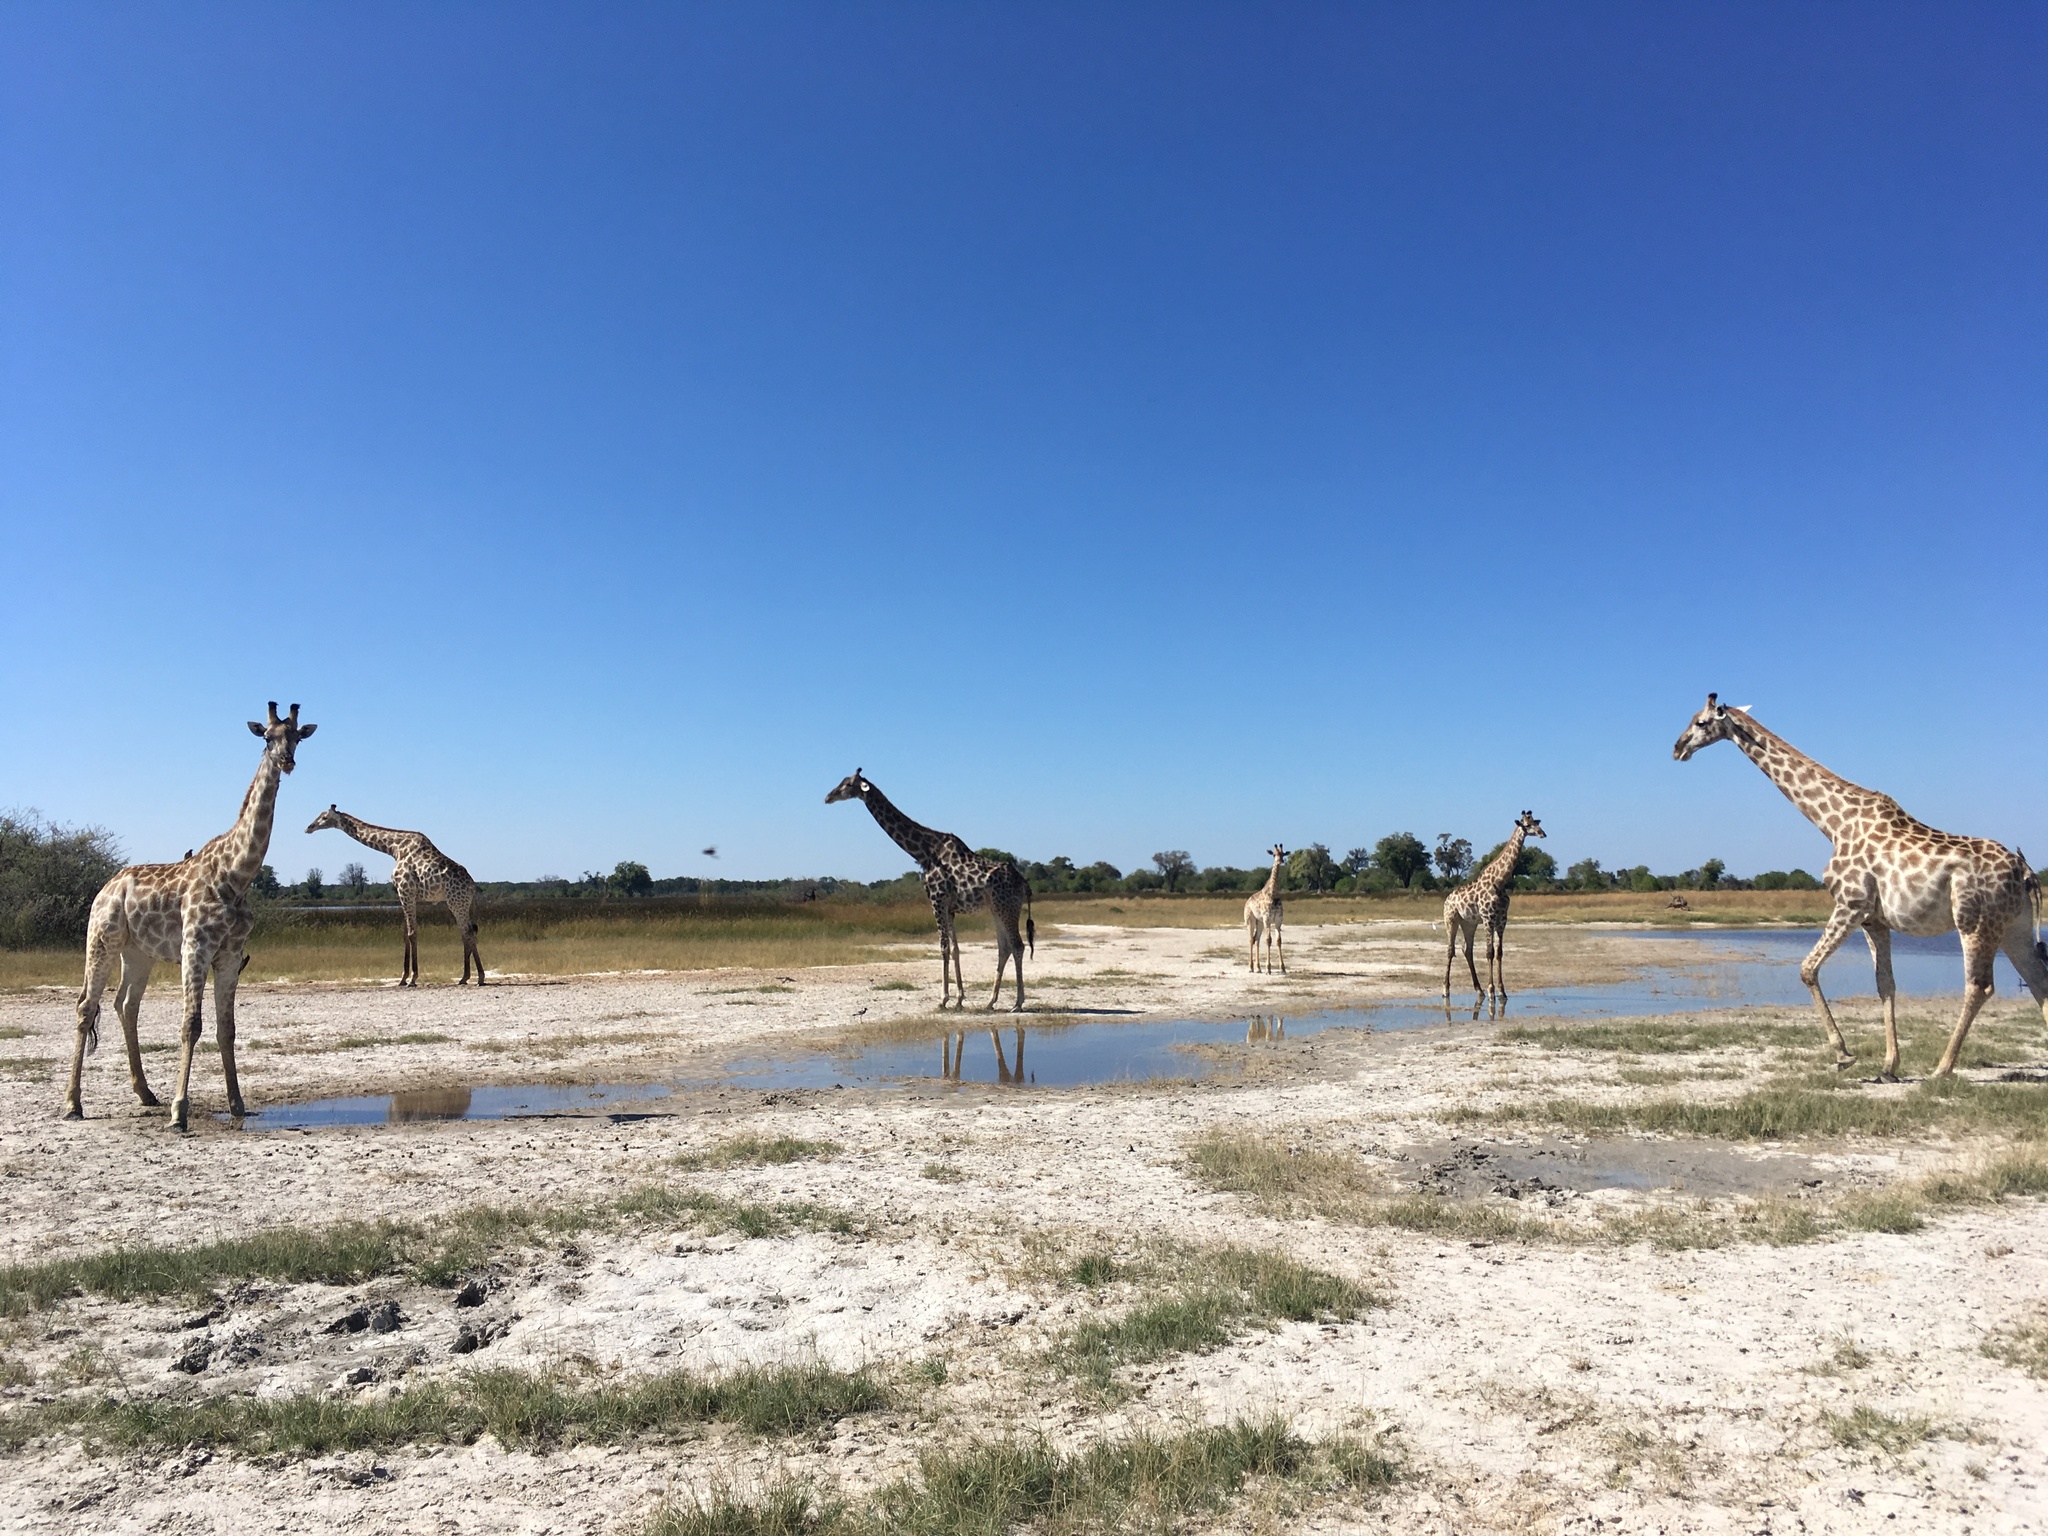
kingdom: Animalia
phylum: Chordata
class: Mammalia
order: Artiodactyla
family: Giraffidae
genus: Giraffa
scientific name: Giraffa giraffa
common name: Southern giraffe
